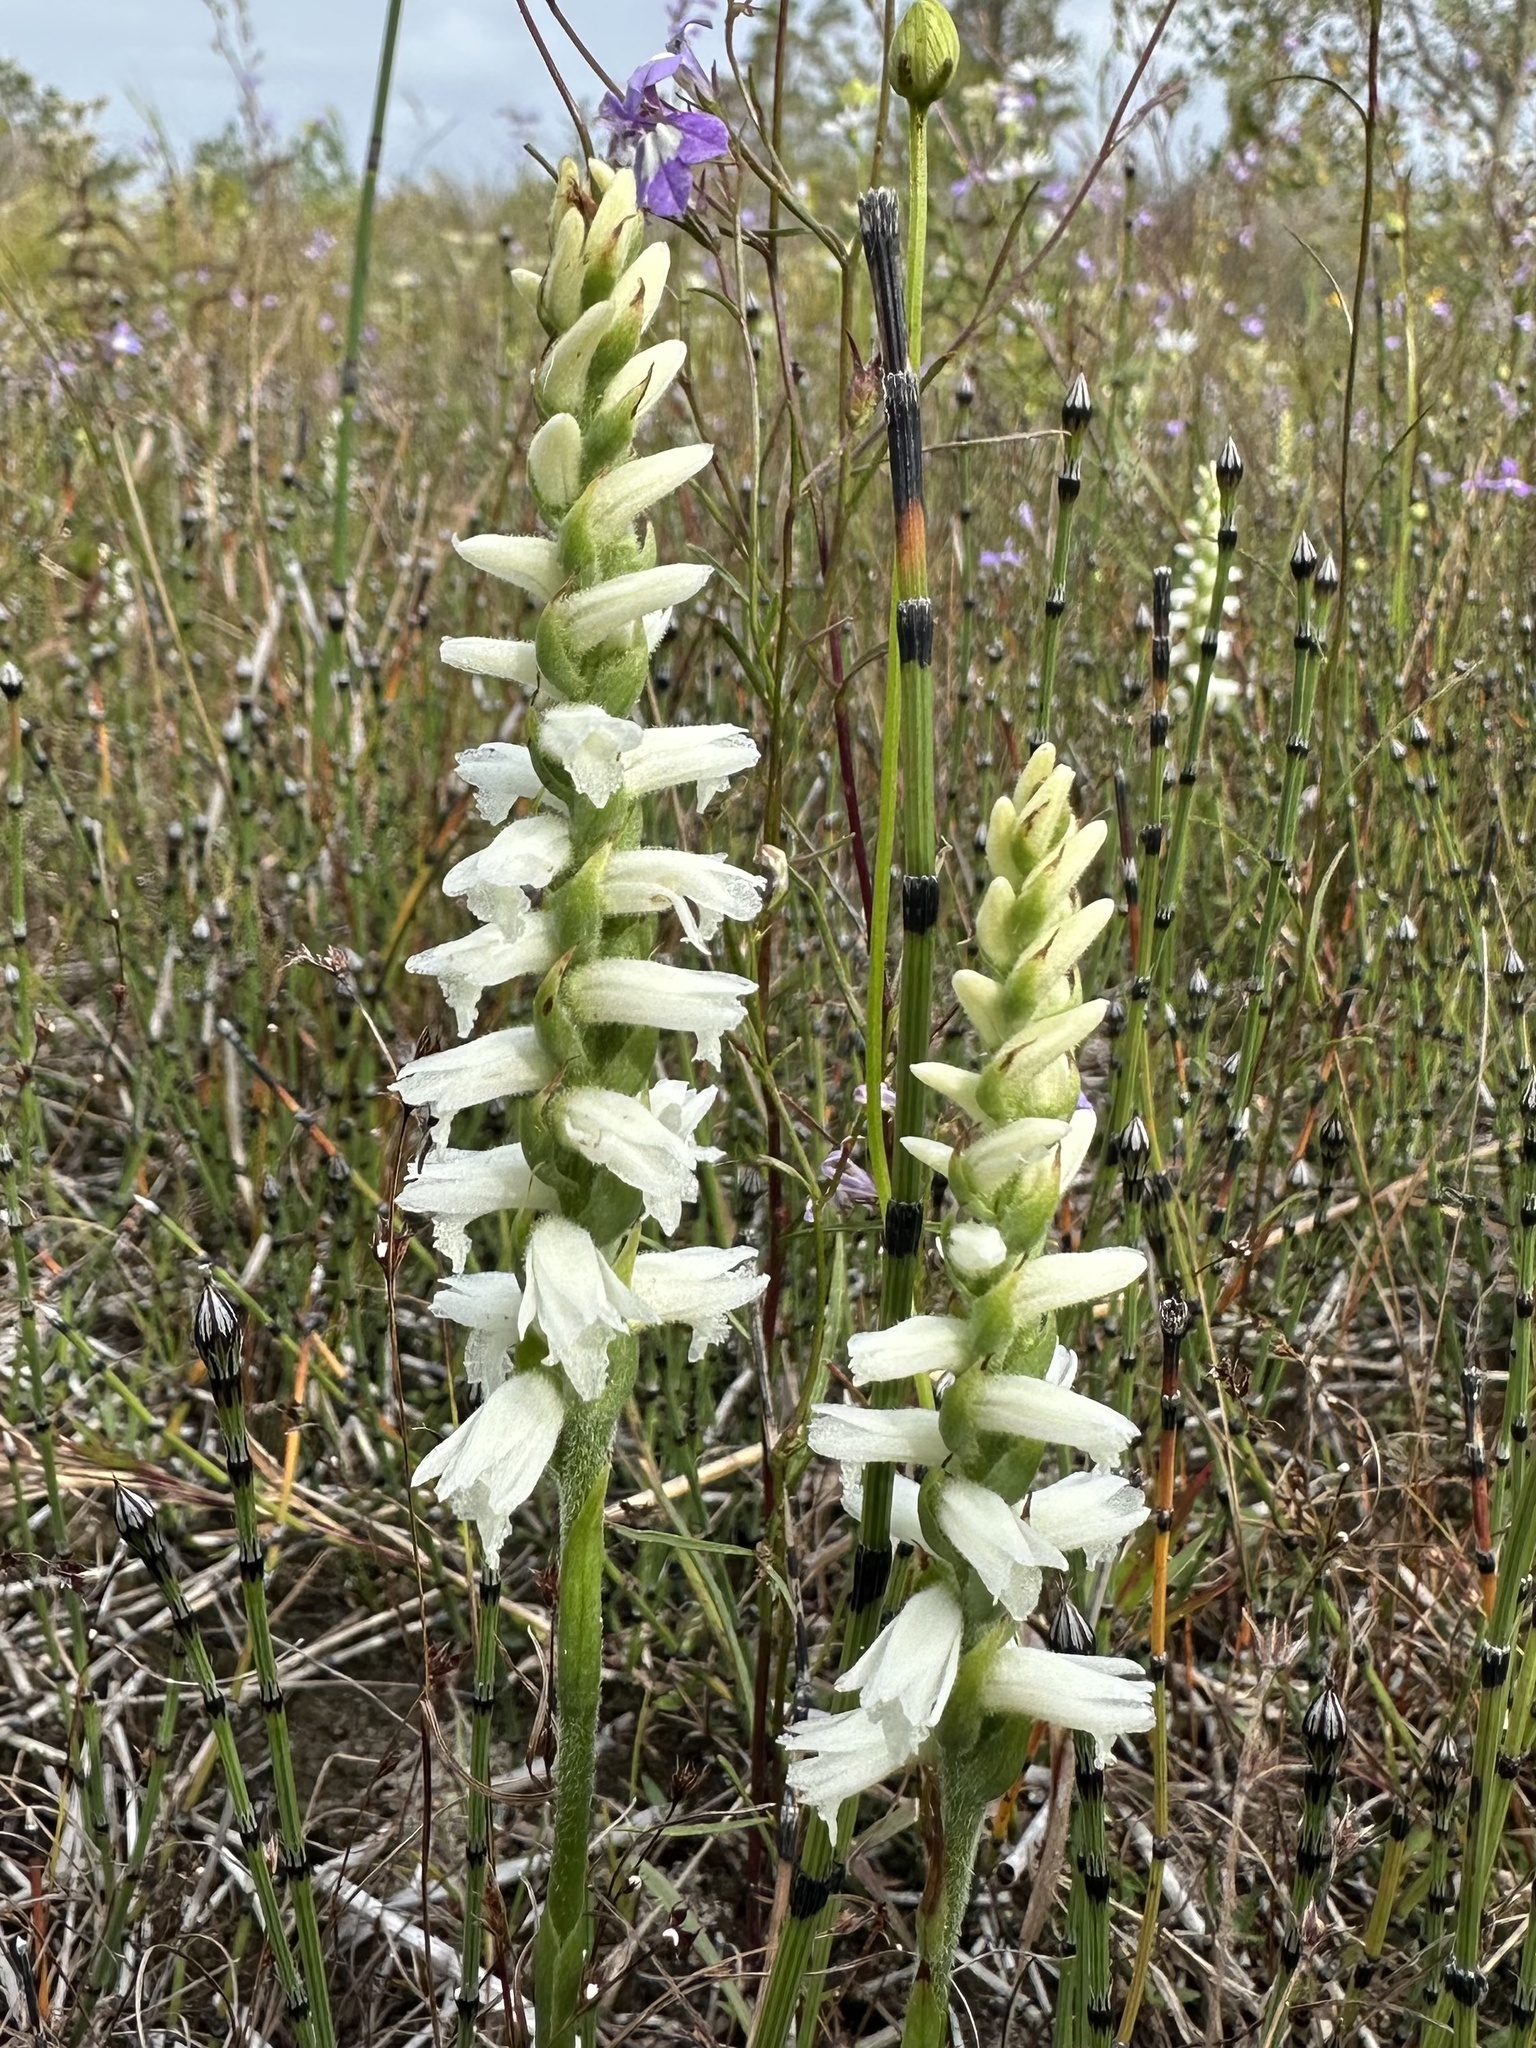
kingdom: Plantae
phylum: Tracheophyta
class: Liliopsida
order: Asparagales
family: Orchidaceae
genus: Spiranthes
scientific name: Spiranthes incurva
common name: Sphinx ladies'-tresses
